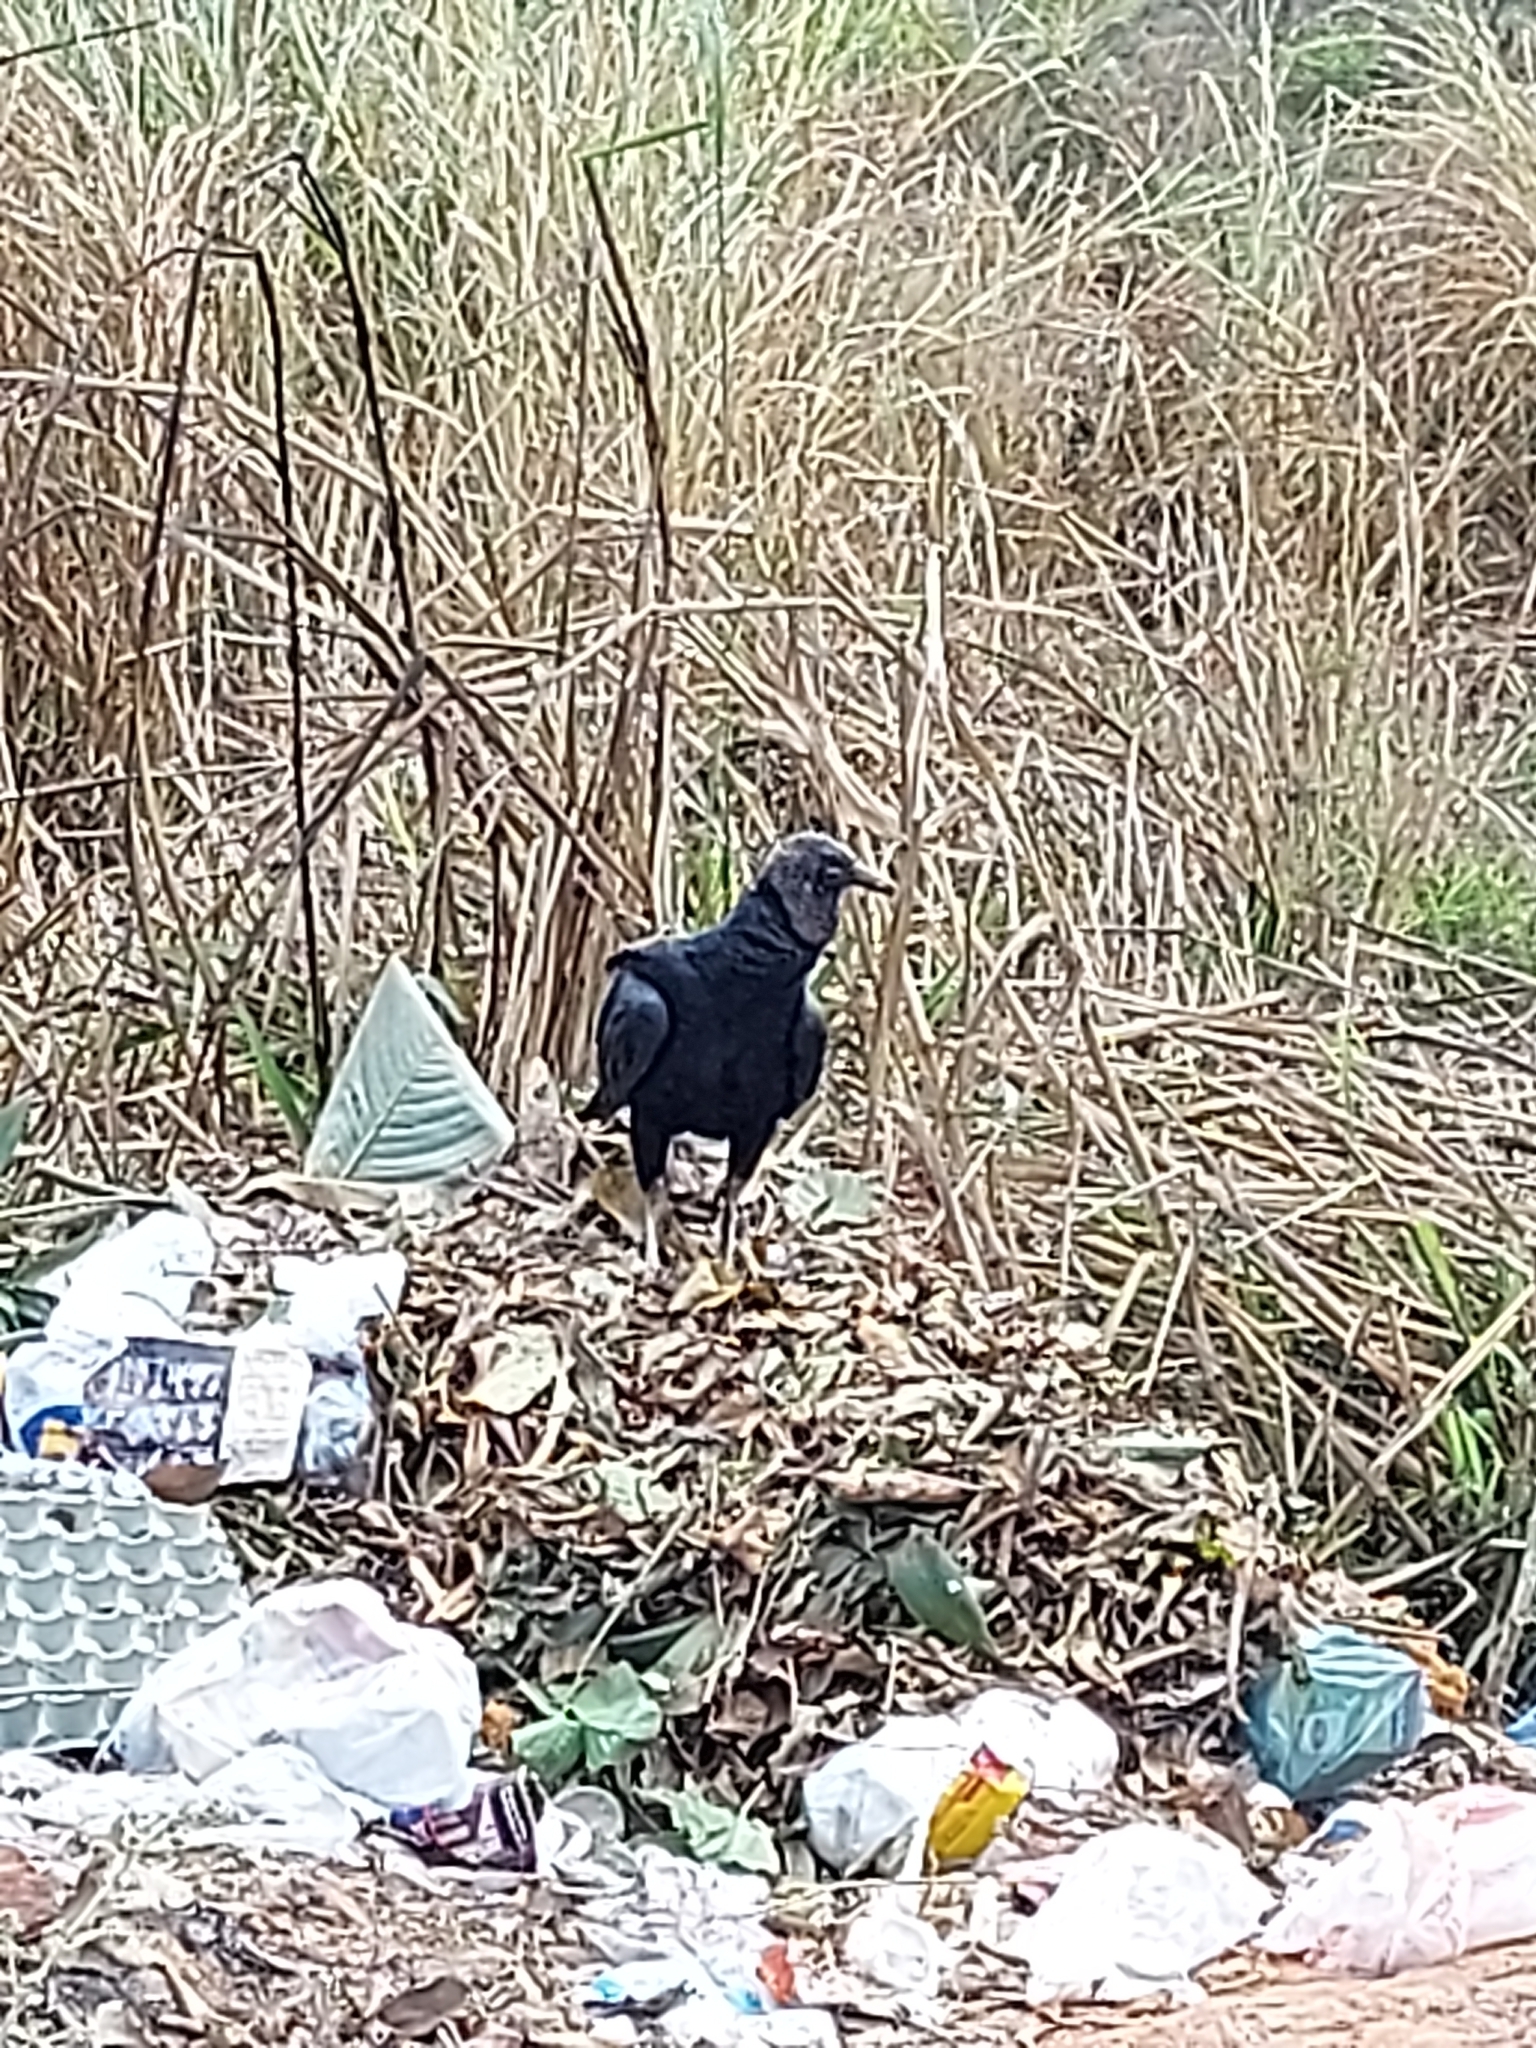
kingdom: Animalia
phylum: Chordata
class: Aves
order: Accipitriformes
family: Cathartidae
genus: Coragyps
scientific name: Coragyps atratus
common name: Black vulture
